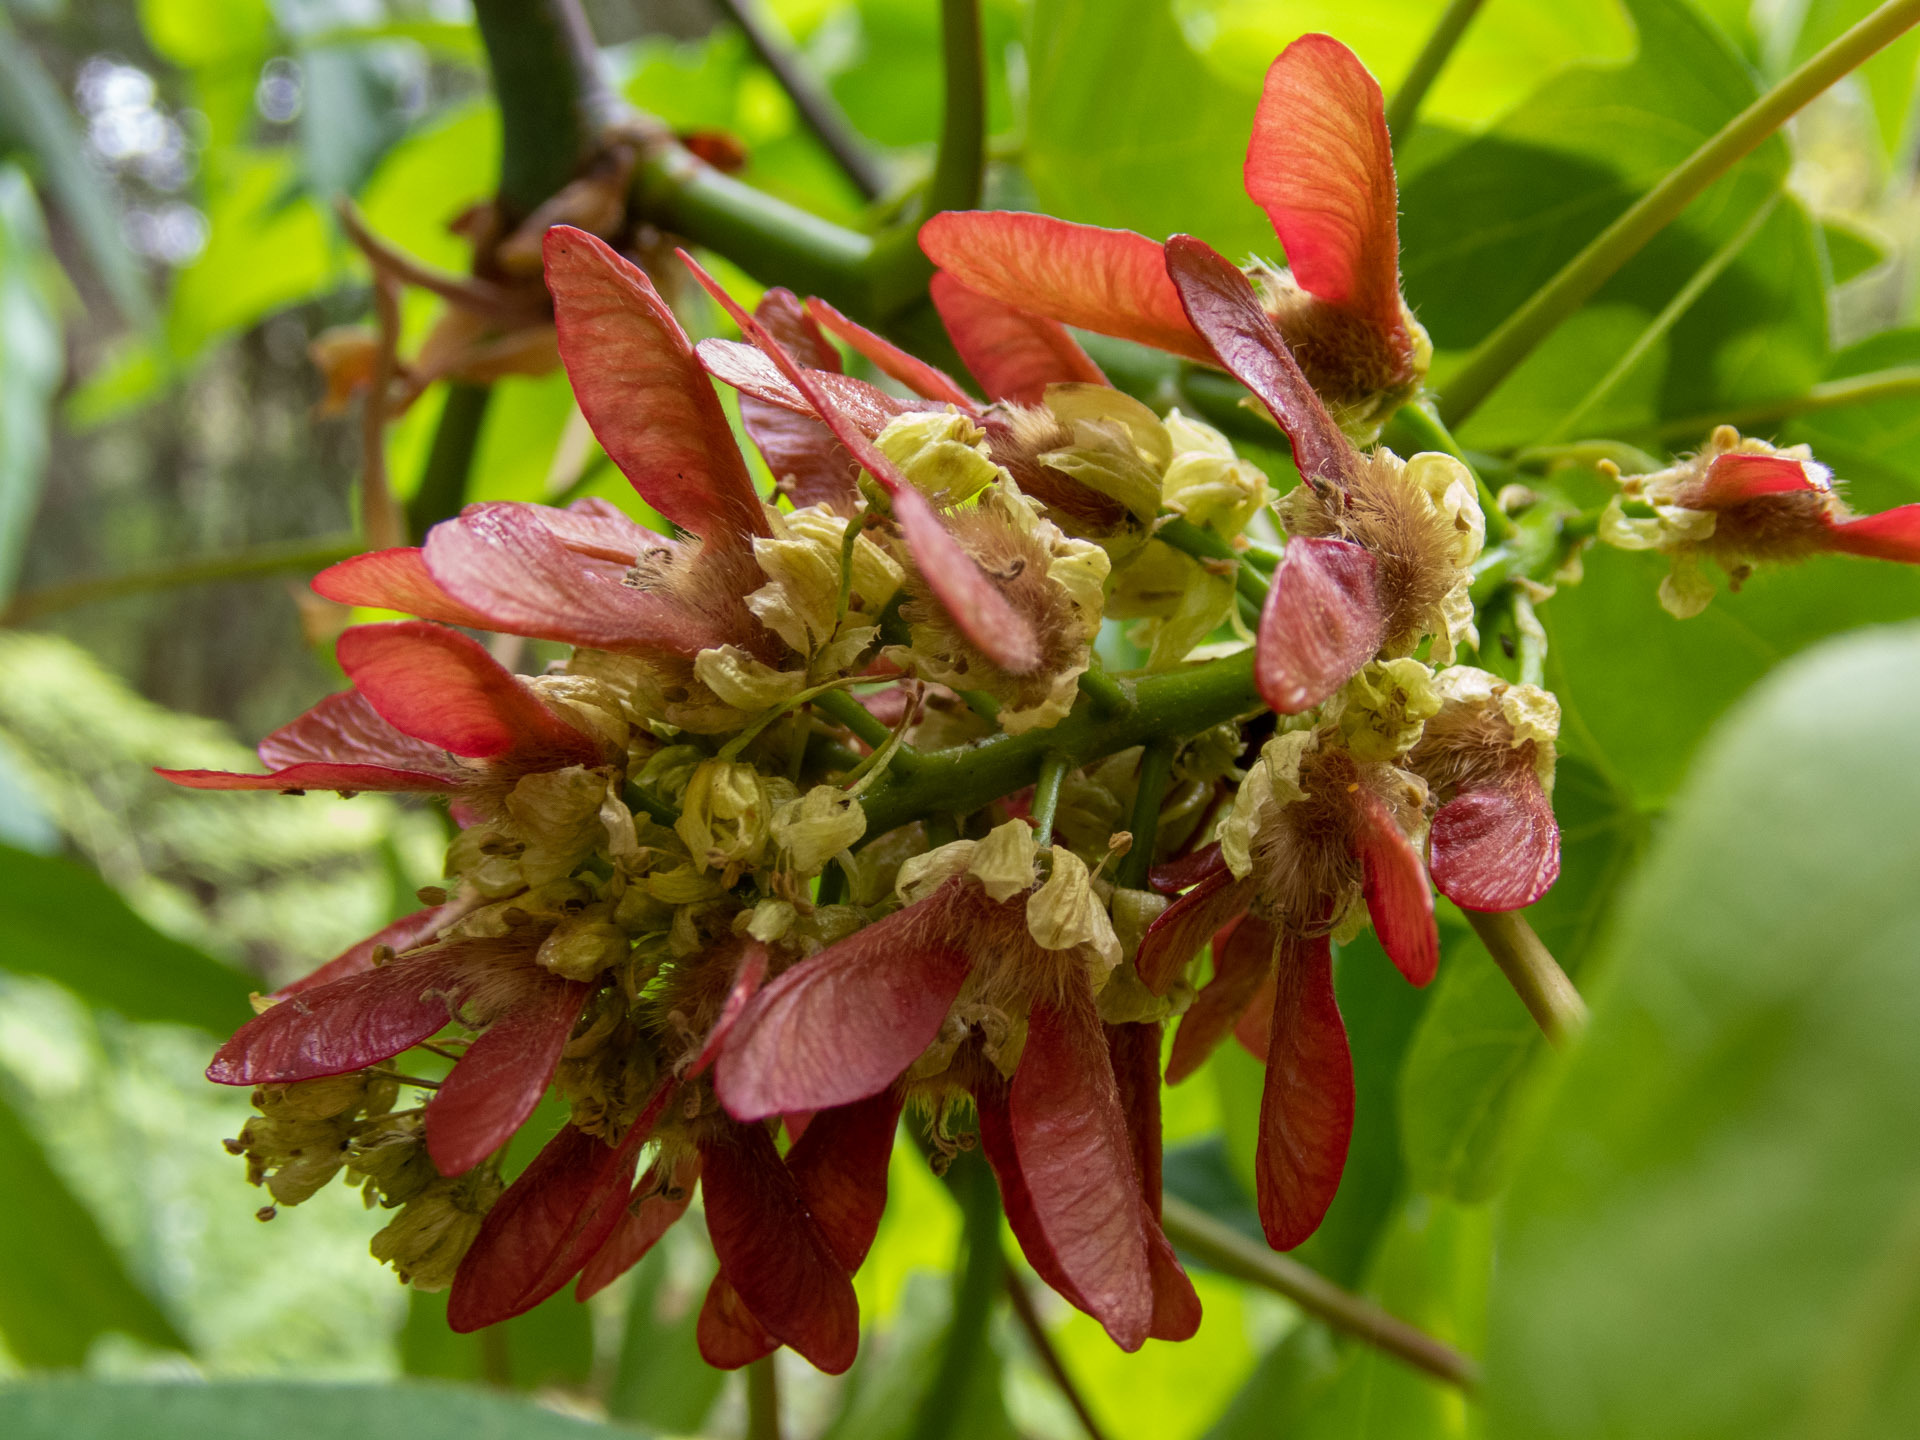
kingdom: Plantae
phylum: Tracheophyta
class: Magnoliopsida
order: Sapindales
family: Sapindaceae
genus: Acer
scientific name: Acer macrophyllum
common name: Oregon maple
